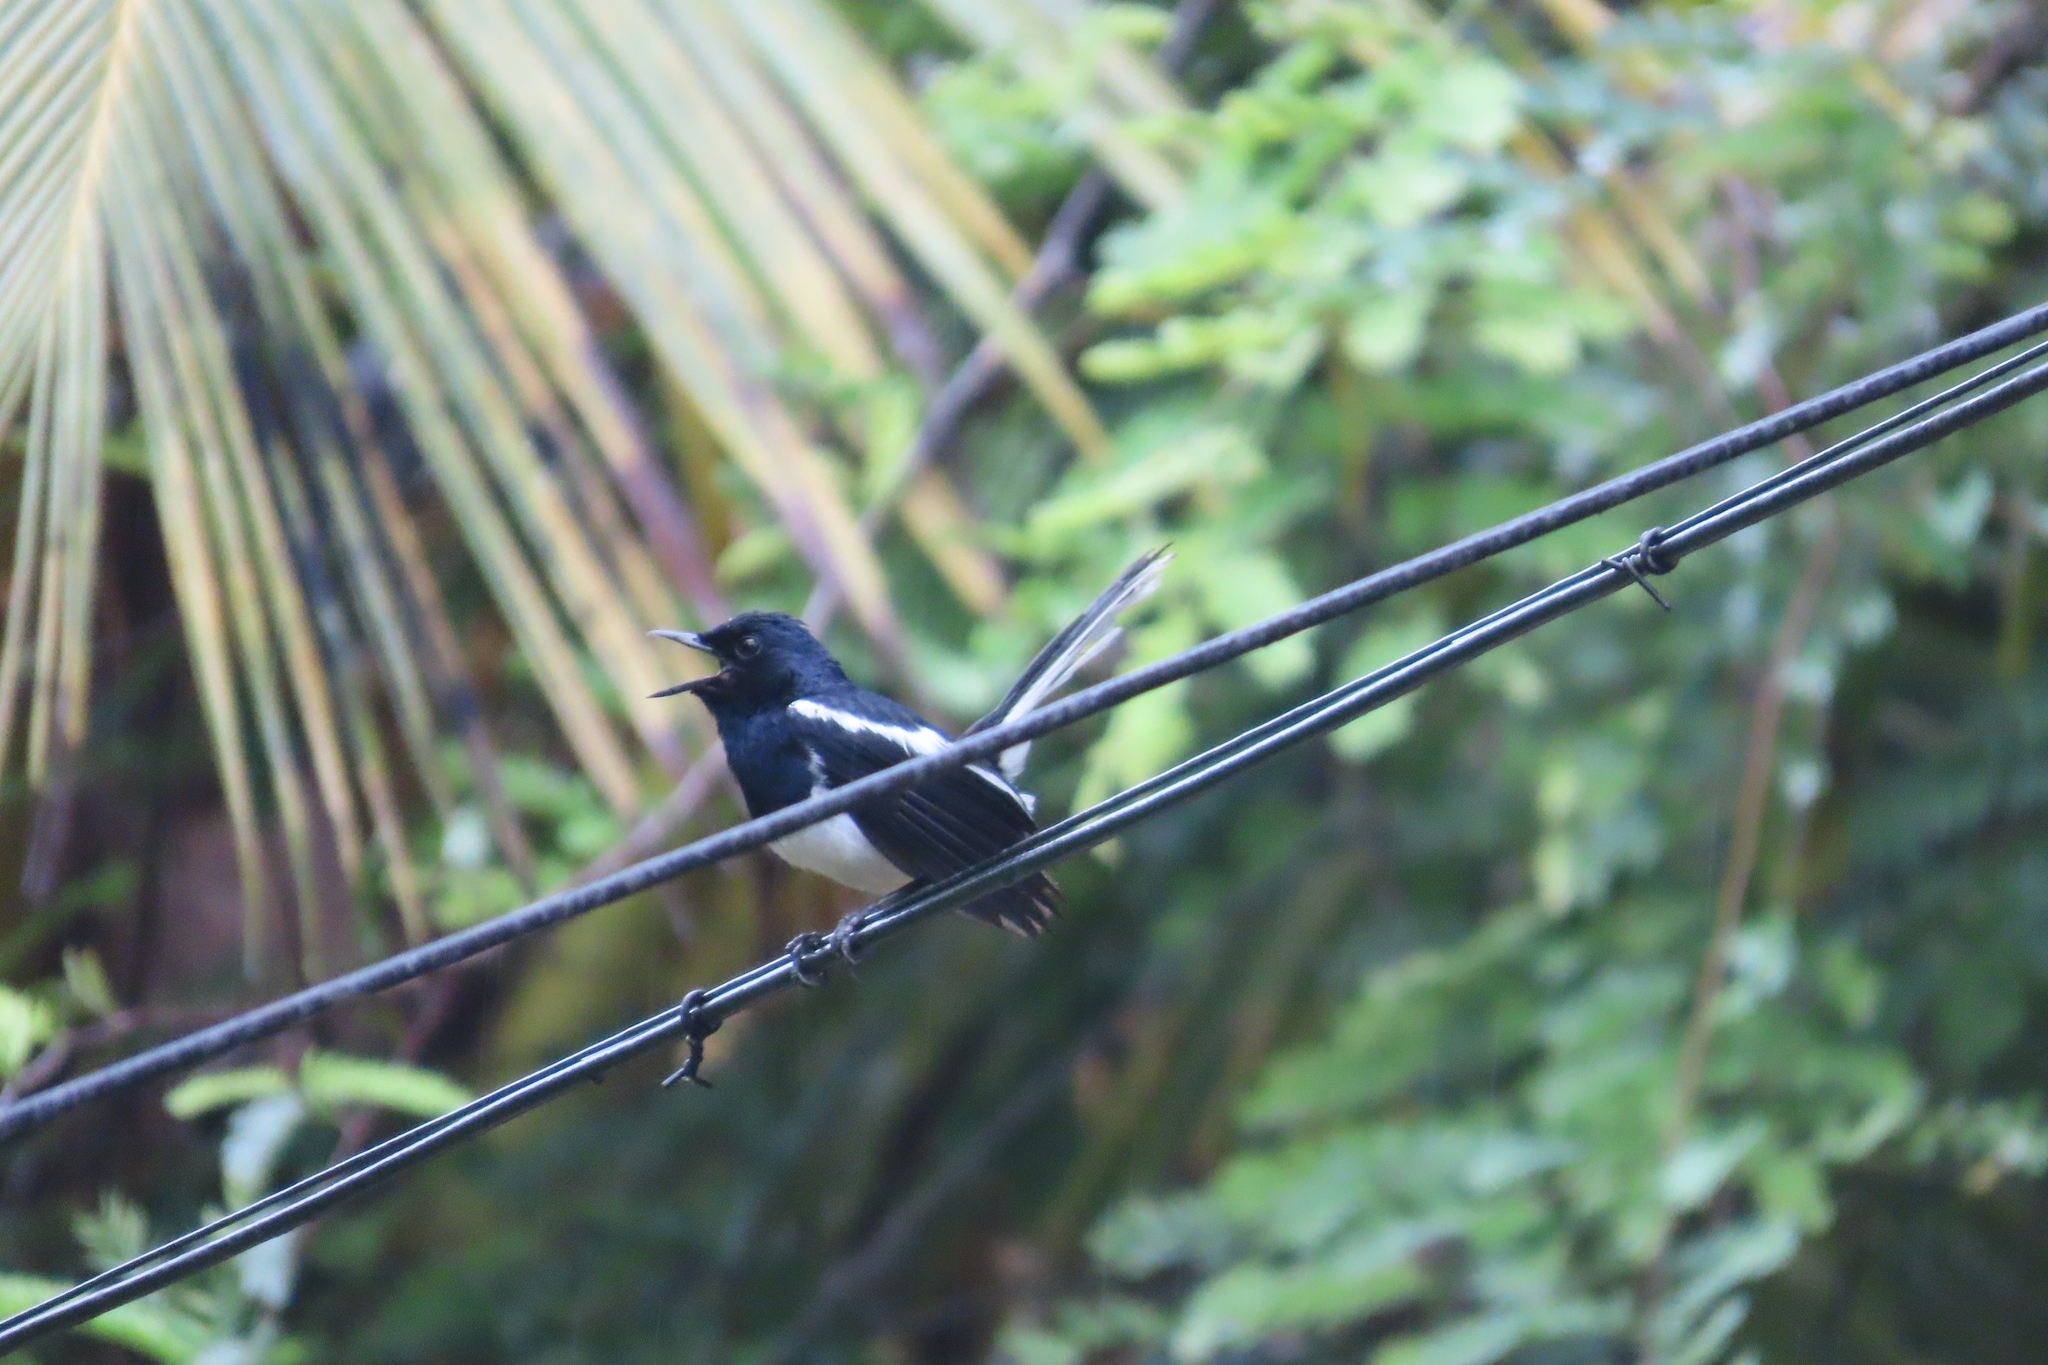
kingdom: Animalia
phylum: Chordata
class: Aves
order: Passeriformes
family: Muscicapidae
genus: Copsychus
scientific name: Copsychus saularis
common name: Oriental magpie-robin
